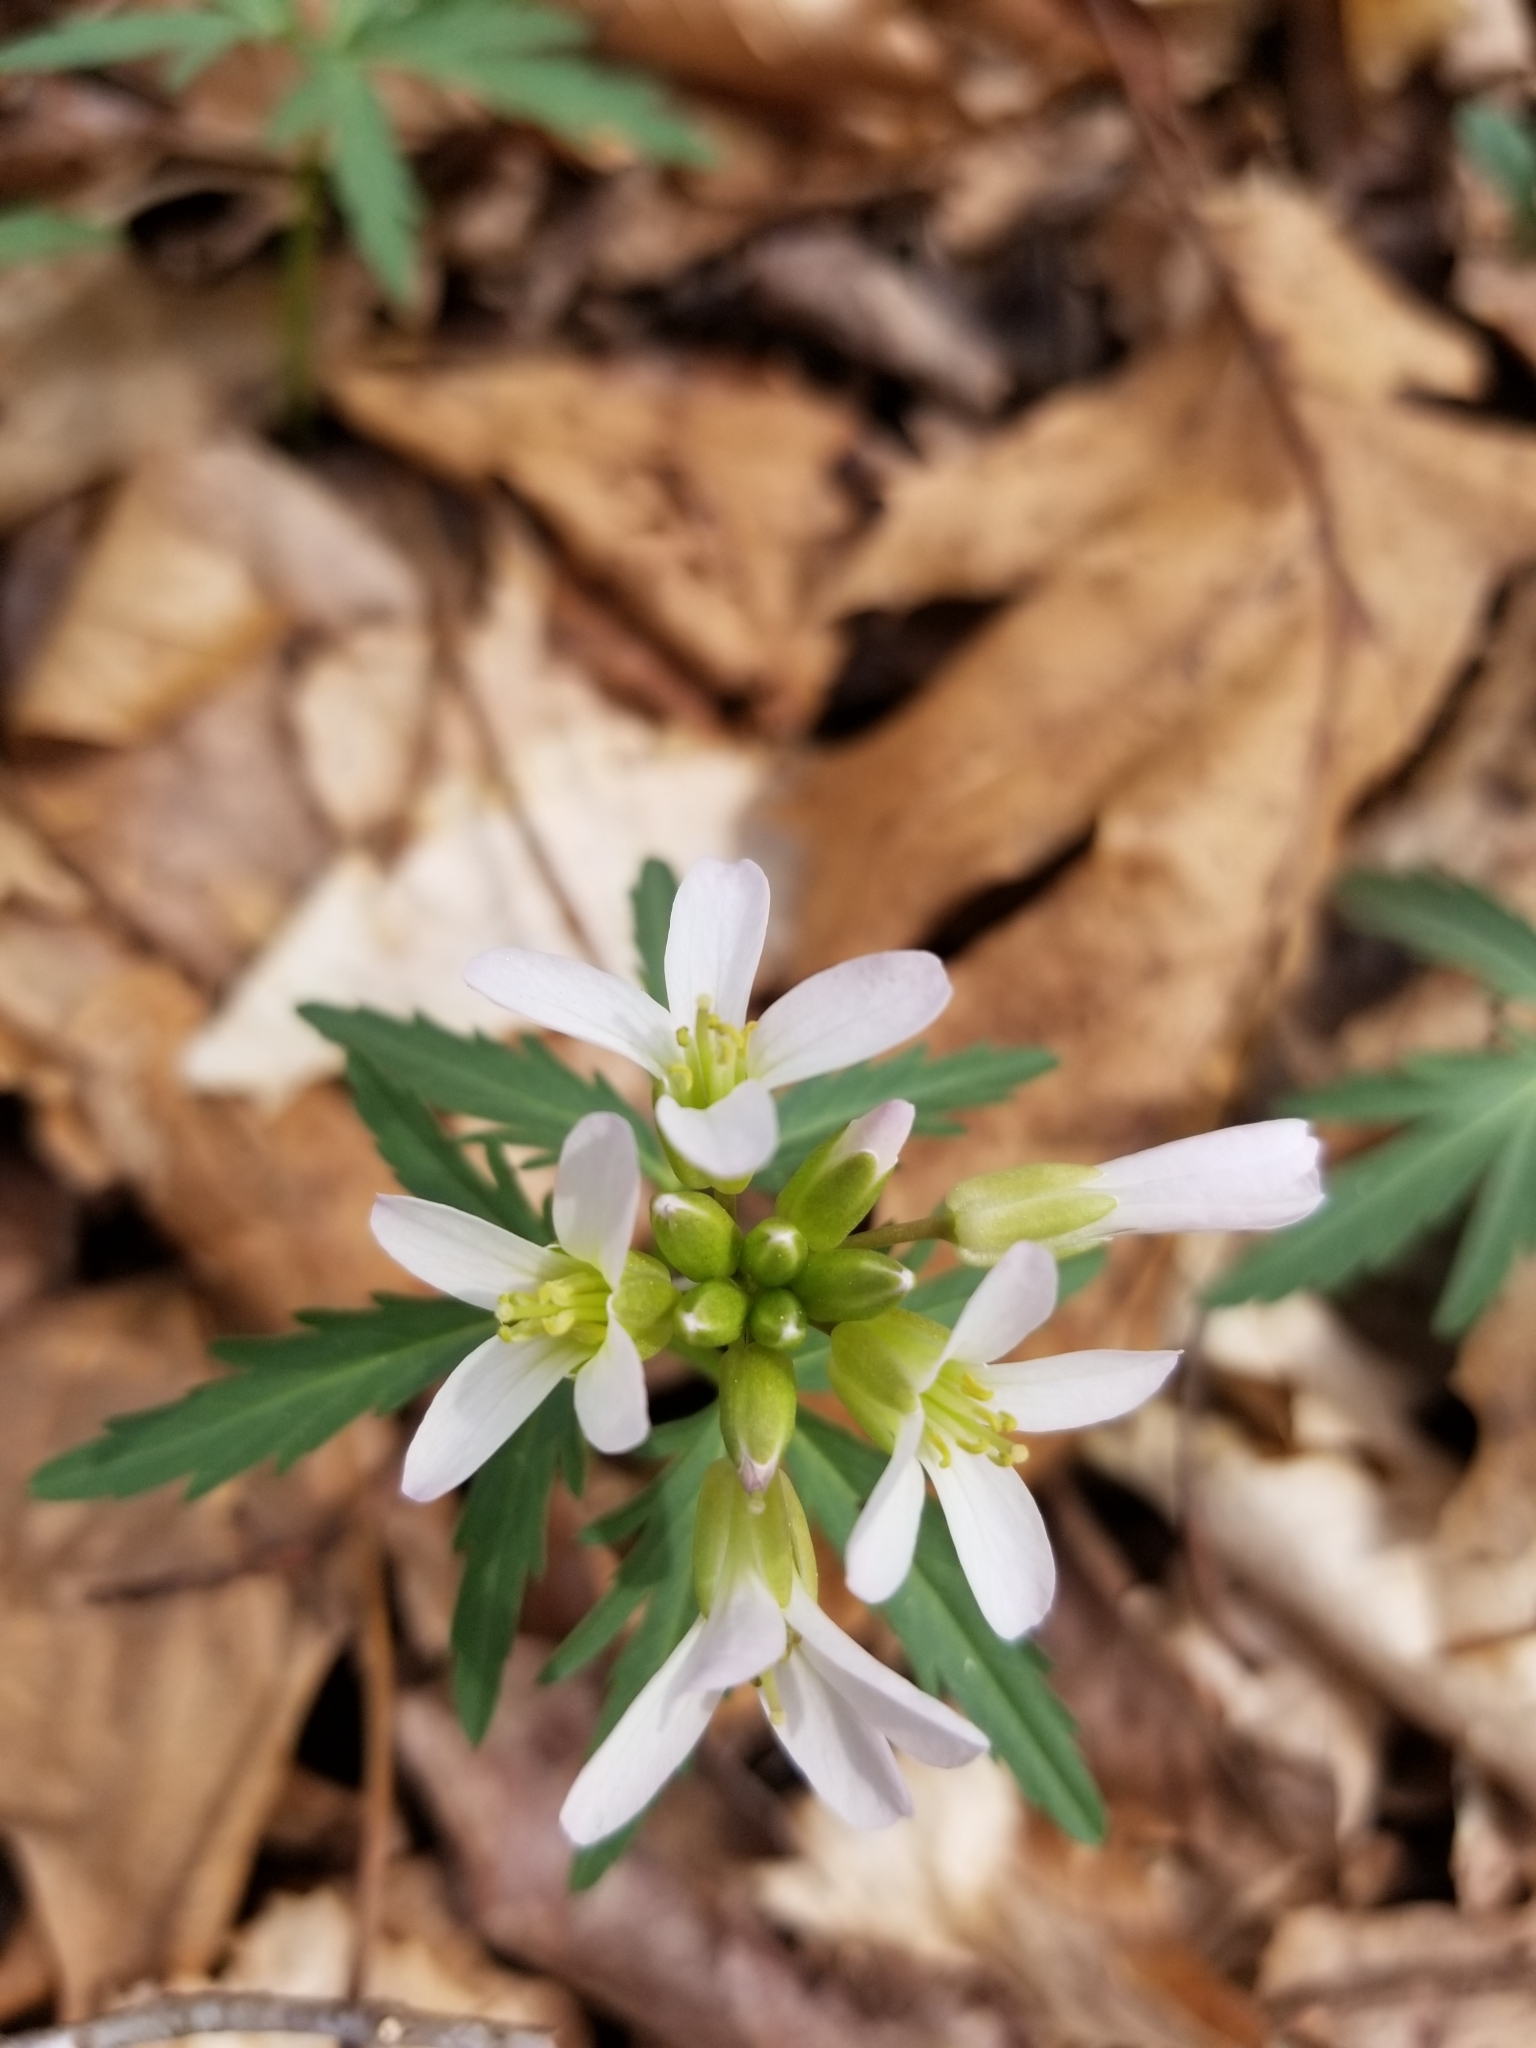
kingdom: Plantae
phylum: Tracheophyta
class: Magnoliopsida
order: Brassicales
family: Brassicaceae
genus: Cardamine
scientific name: Cardamine concatenata
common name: Cut-leaf toothcup
